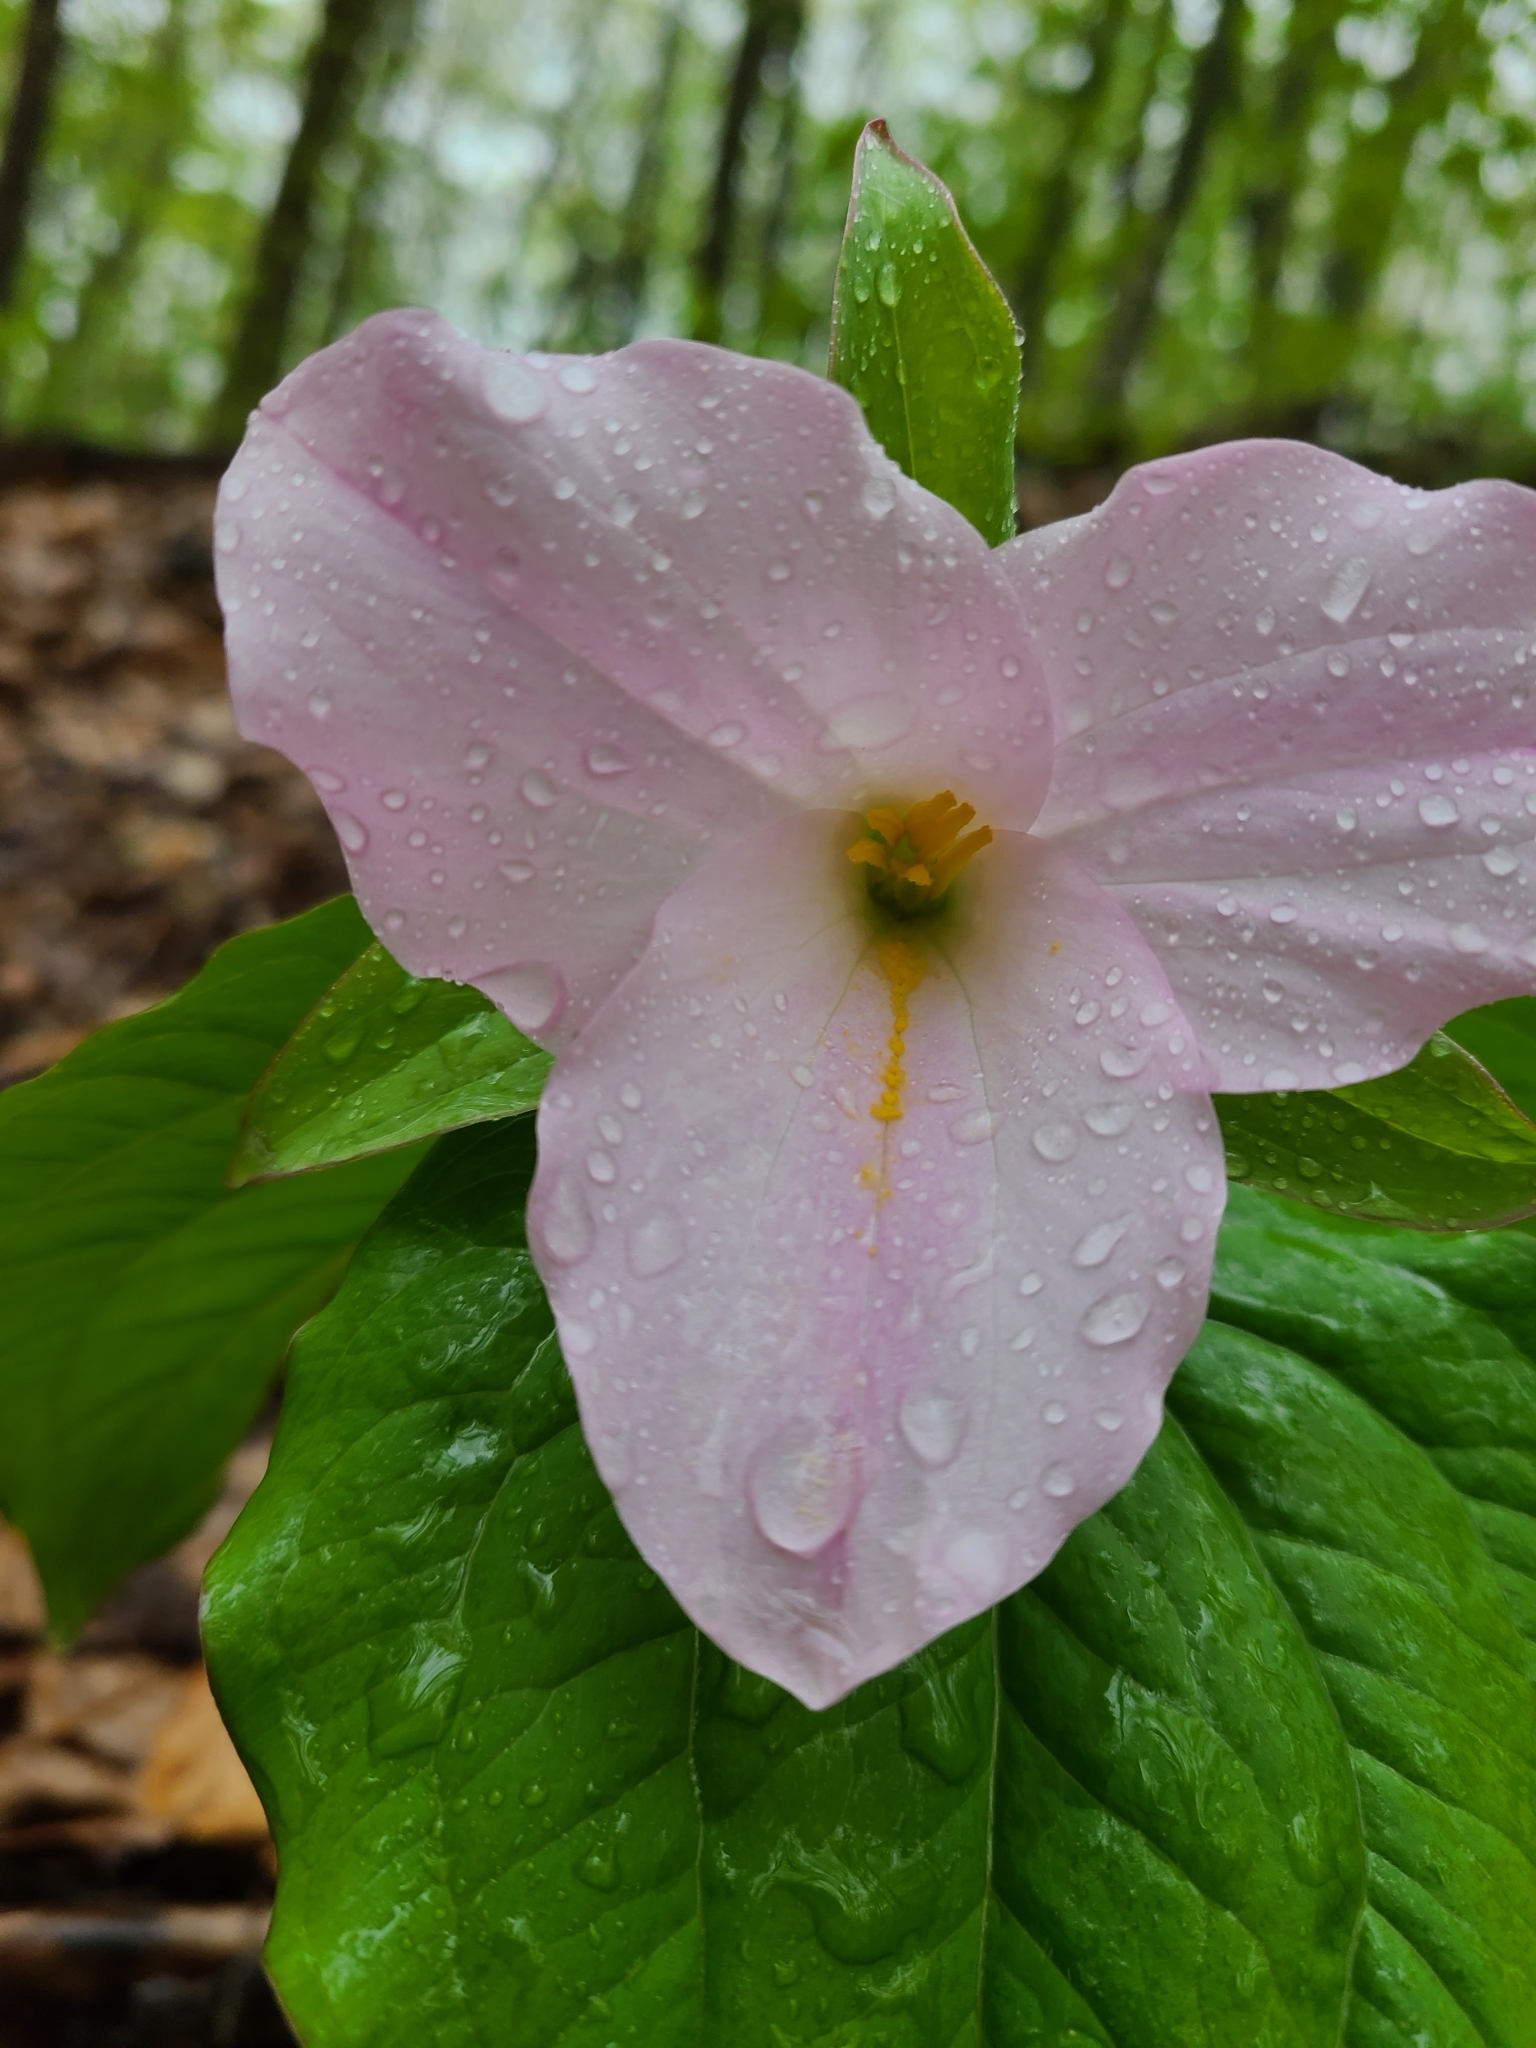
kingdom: Plantae
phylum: Tracheophyta
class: Liliopsida
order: Liliales
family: Melanthiaceae
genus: Trillium
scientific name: Trillium grandiflorum
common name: Great white trillium
